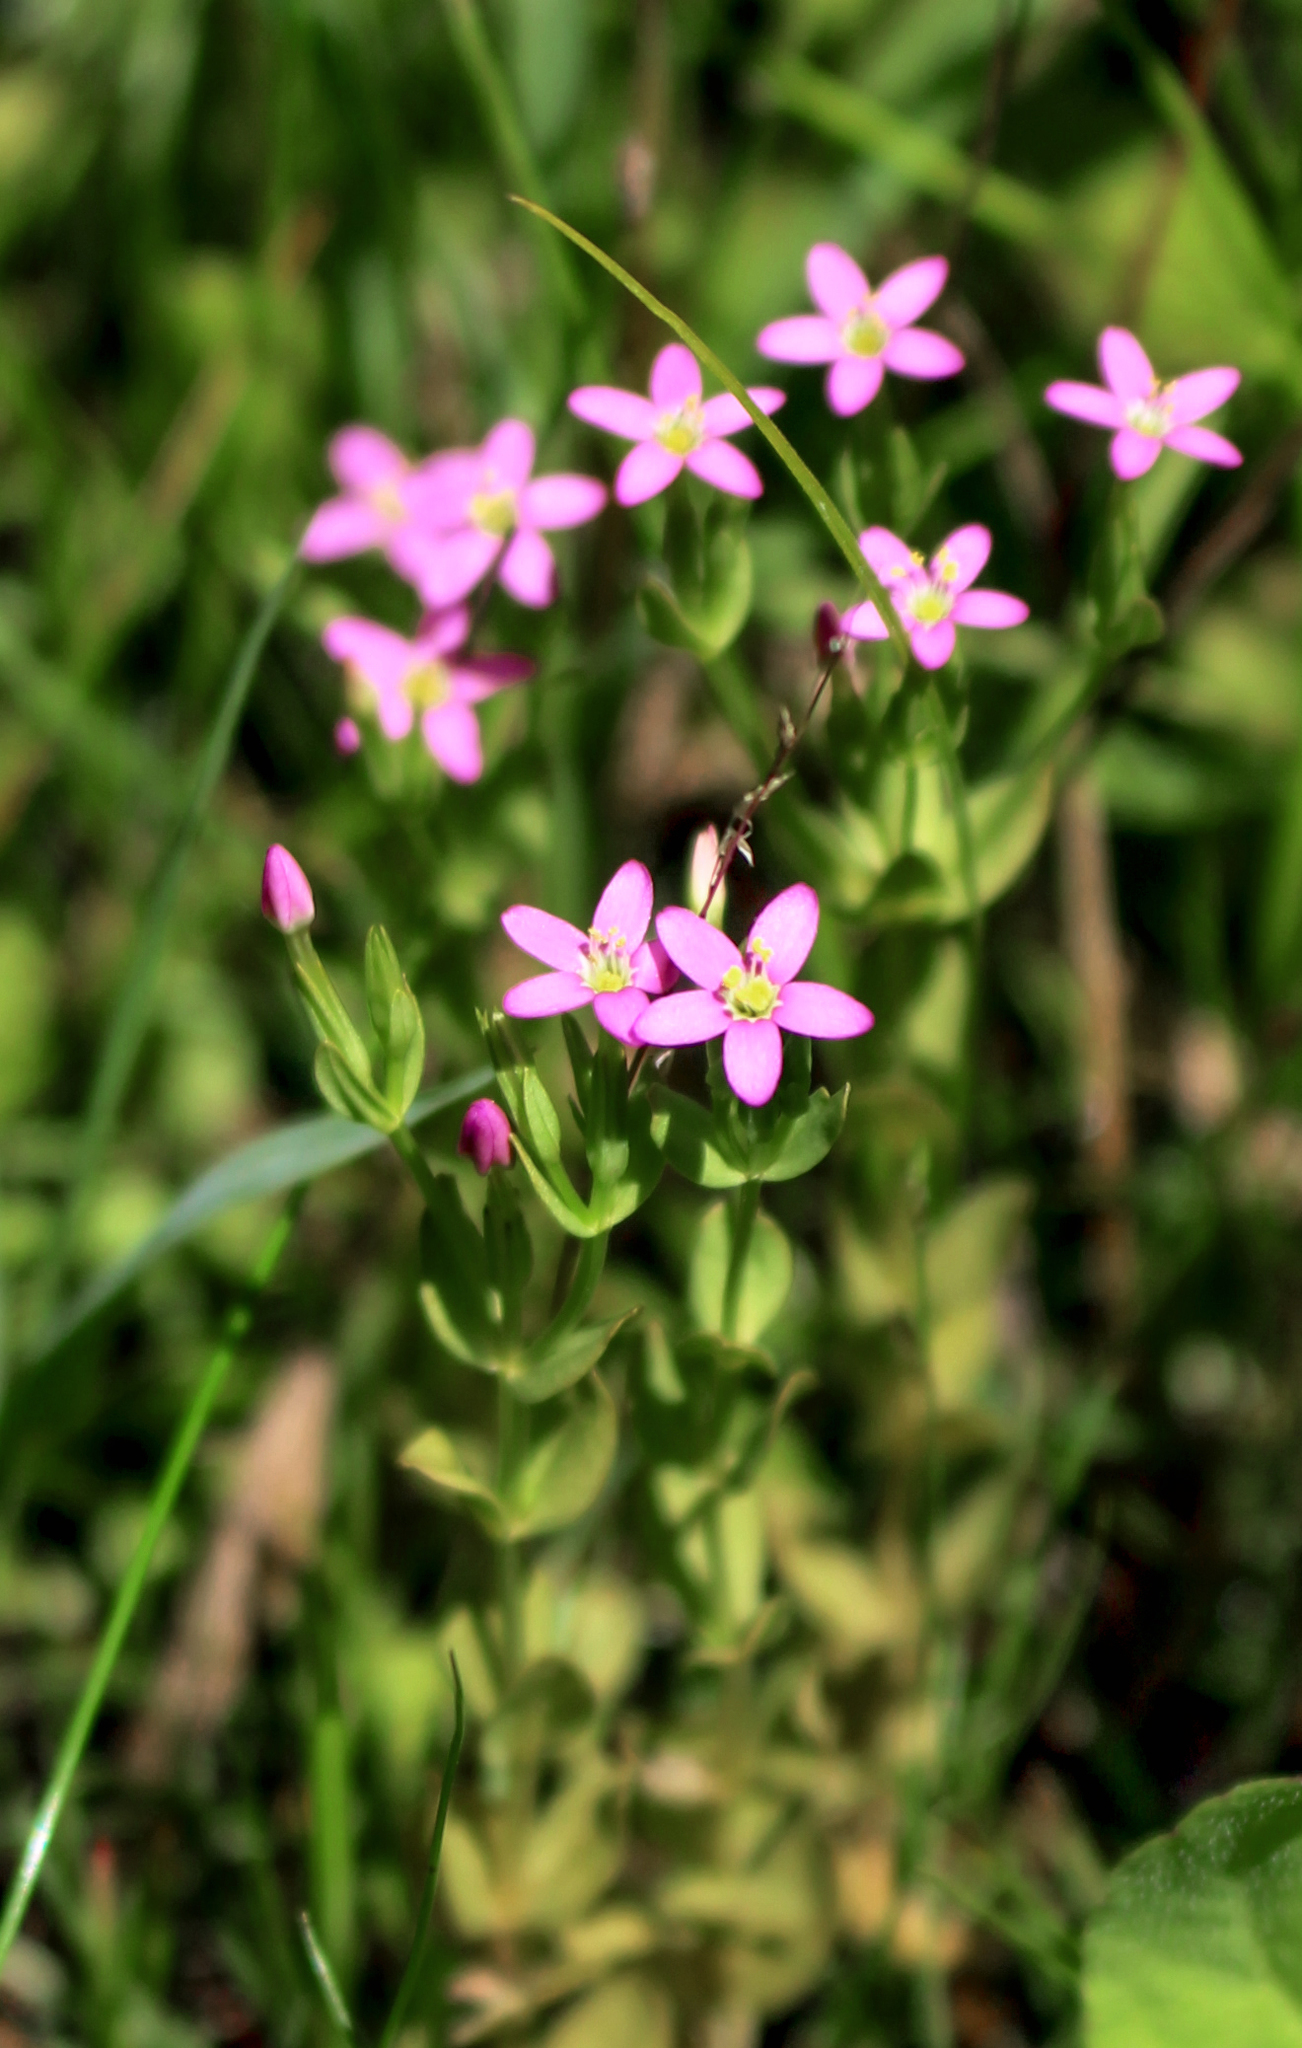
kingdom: Plantae
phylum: Tracheophyta
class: Magnoliopsida
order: Gentianales
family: Gentianaceae
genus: Centaurium
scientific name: Centaurium pulchellum
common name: Lesser centaury
